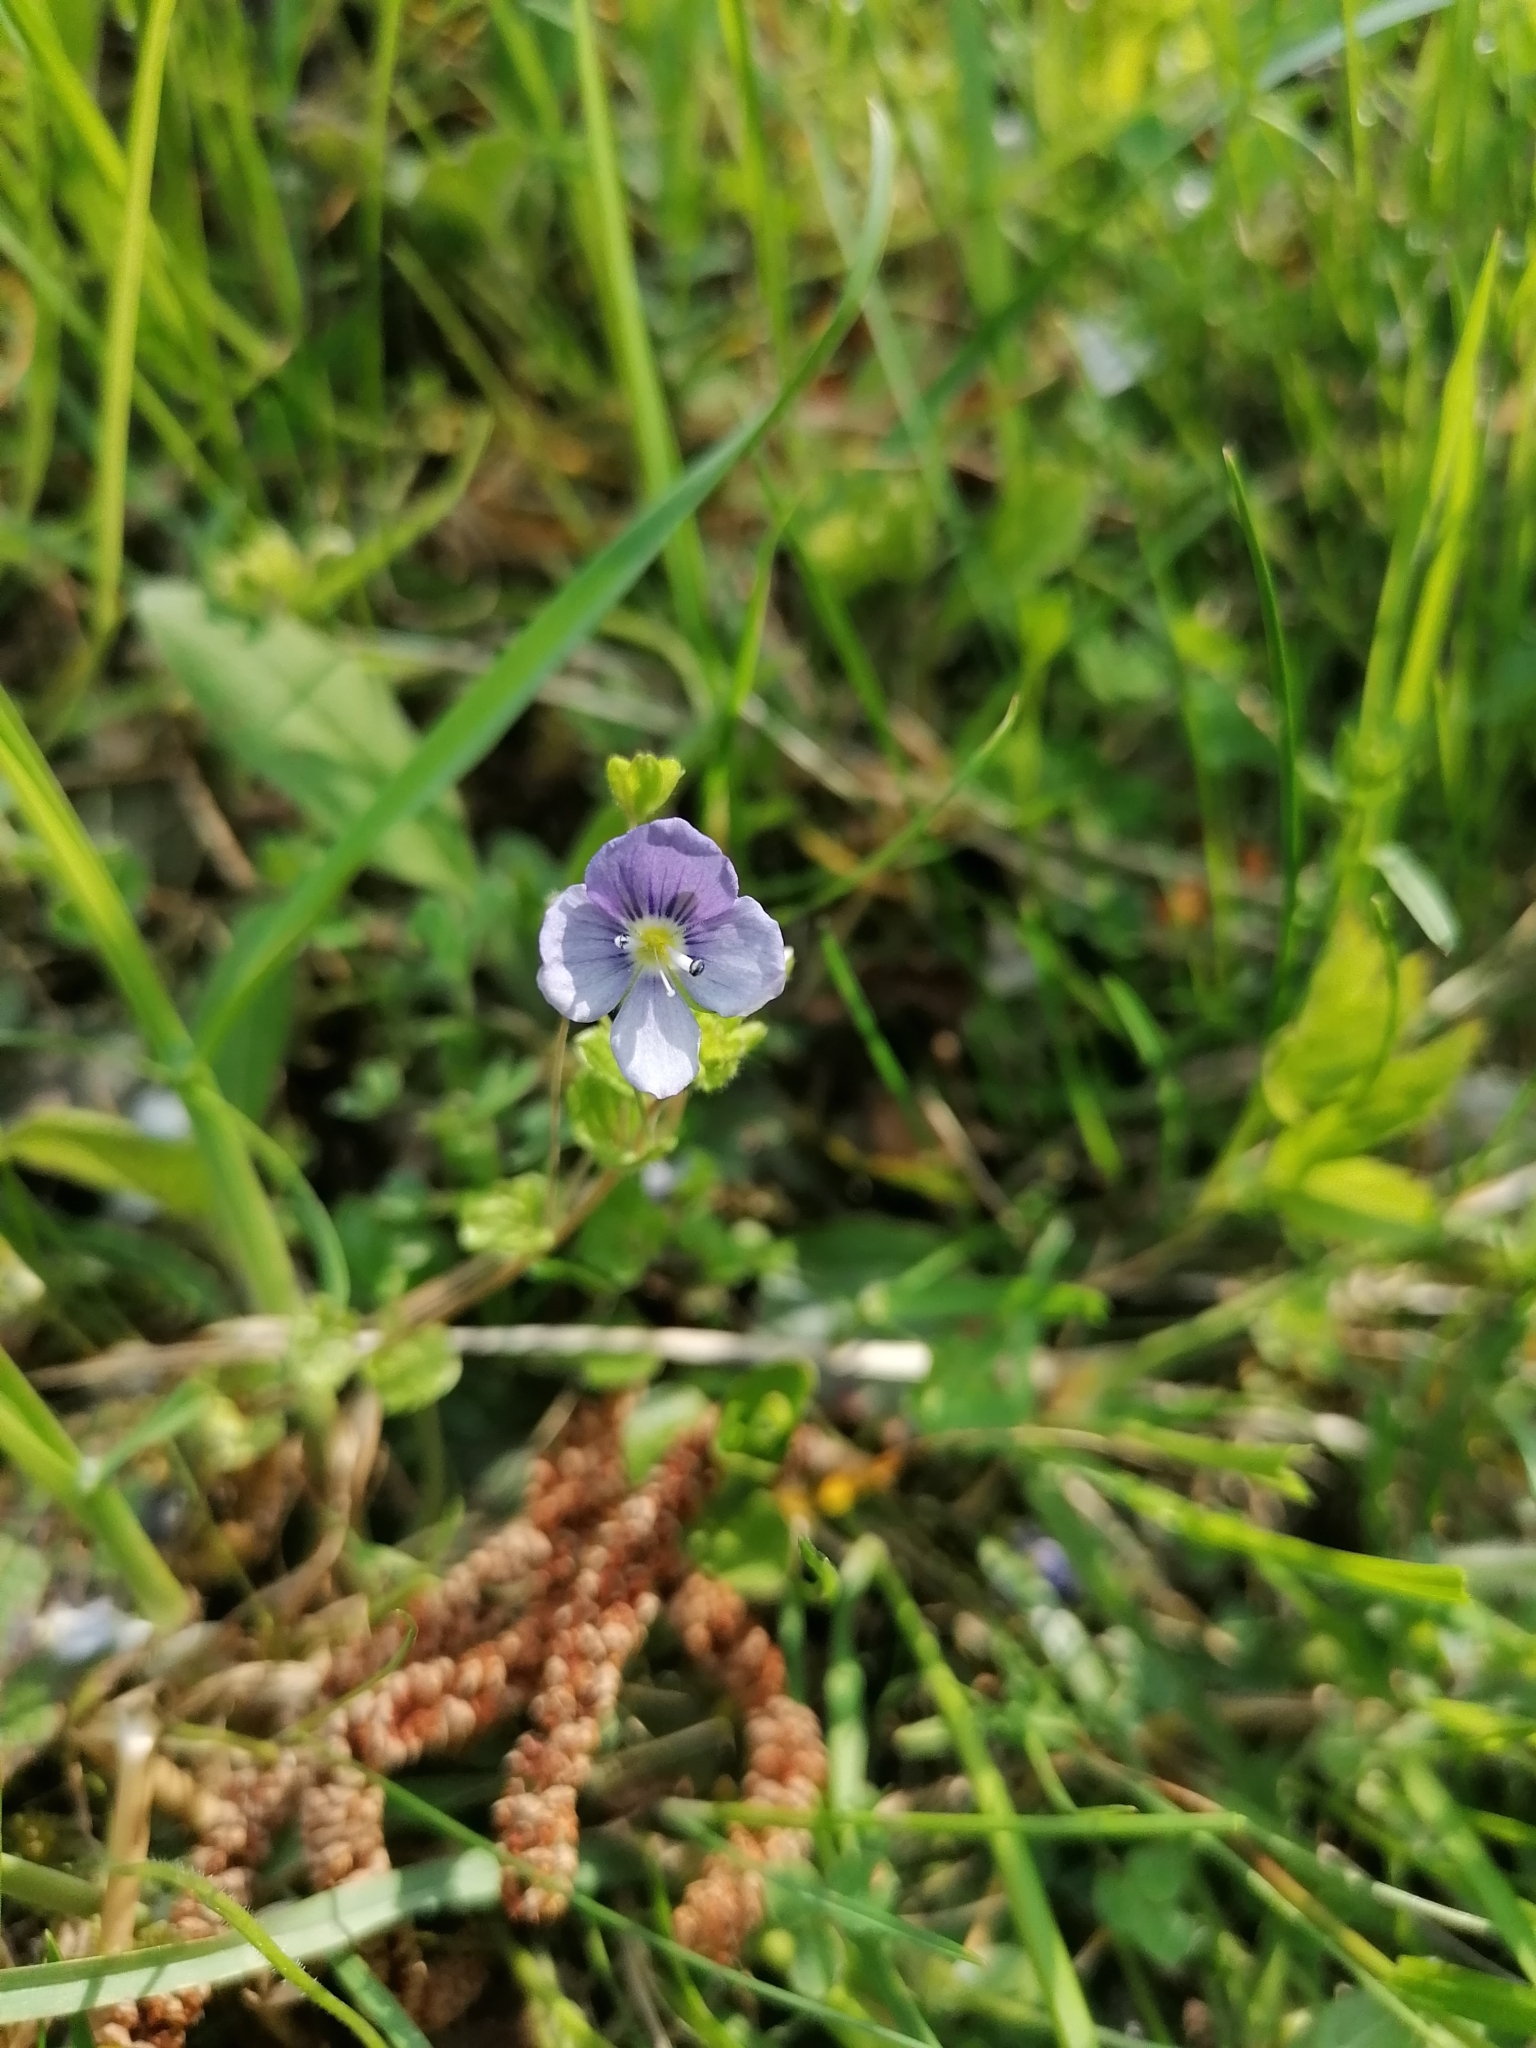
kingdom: Plantae
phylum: Tracheophyta
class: Magnoliopsida
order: Lamiales
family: Plantaginaceae
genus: Veronica
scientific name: Veronica filiformis
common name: Slender speedwell
